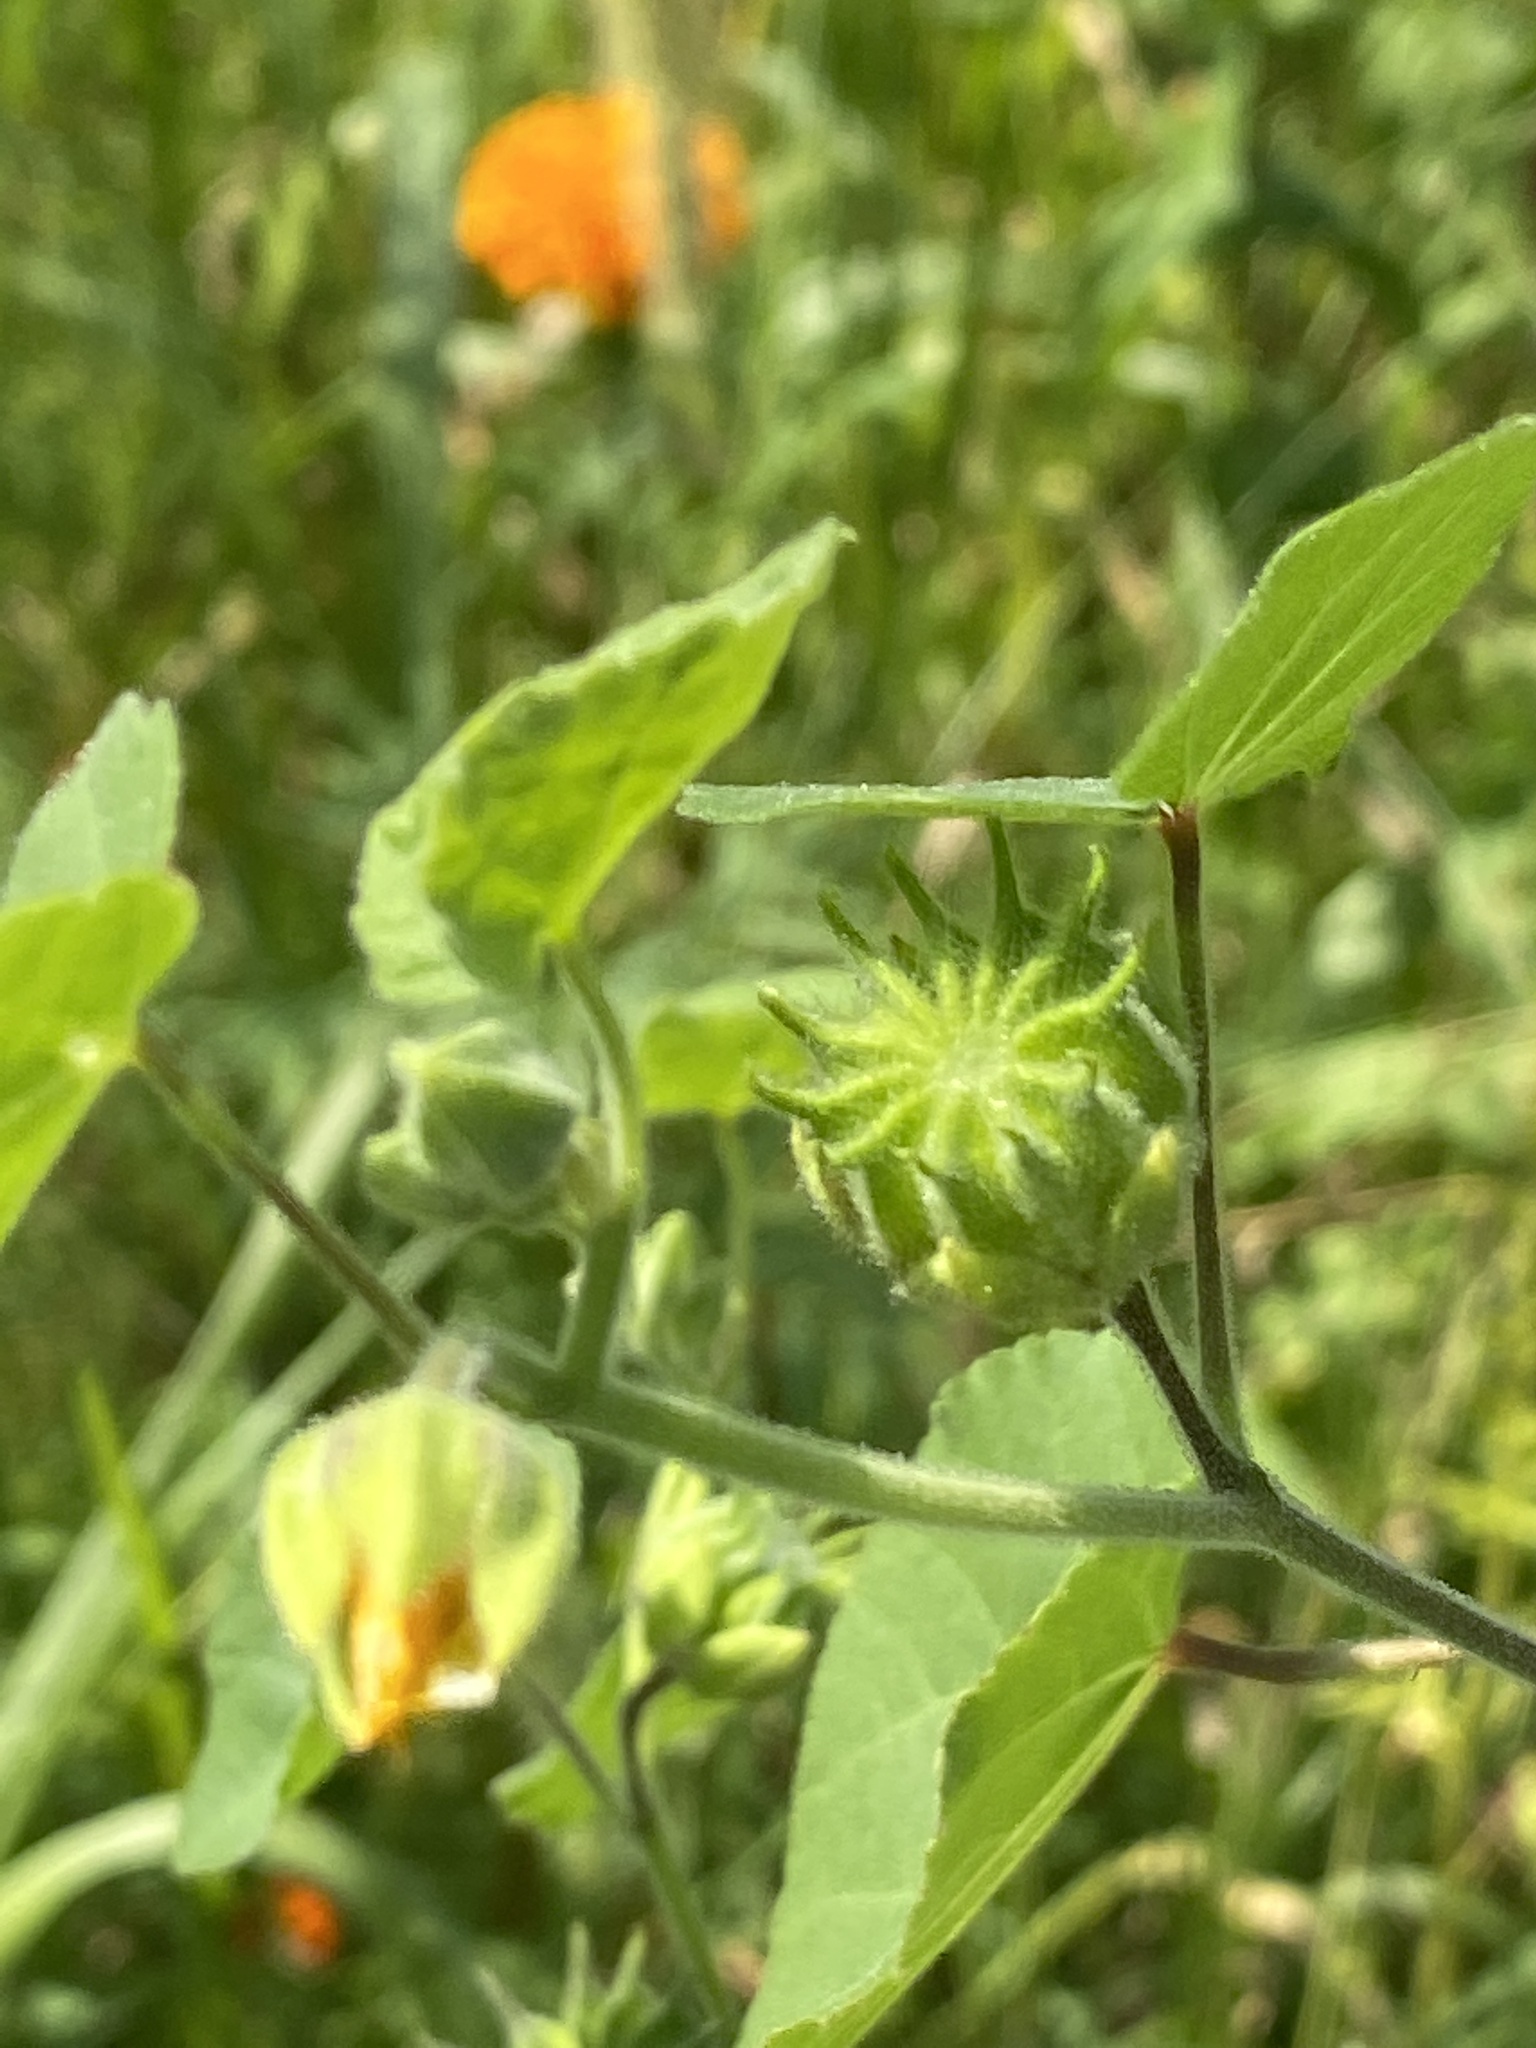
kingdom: Plantae
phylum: Tracheophyta
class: Magnoliopsida
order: Malvales
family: Malvaceae
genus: Abutilon
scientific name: Abutilon theophrasti
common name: Velvetleaf
